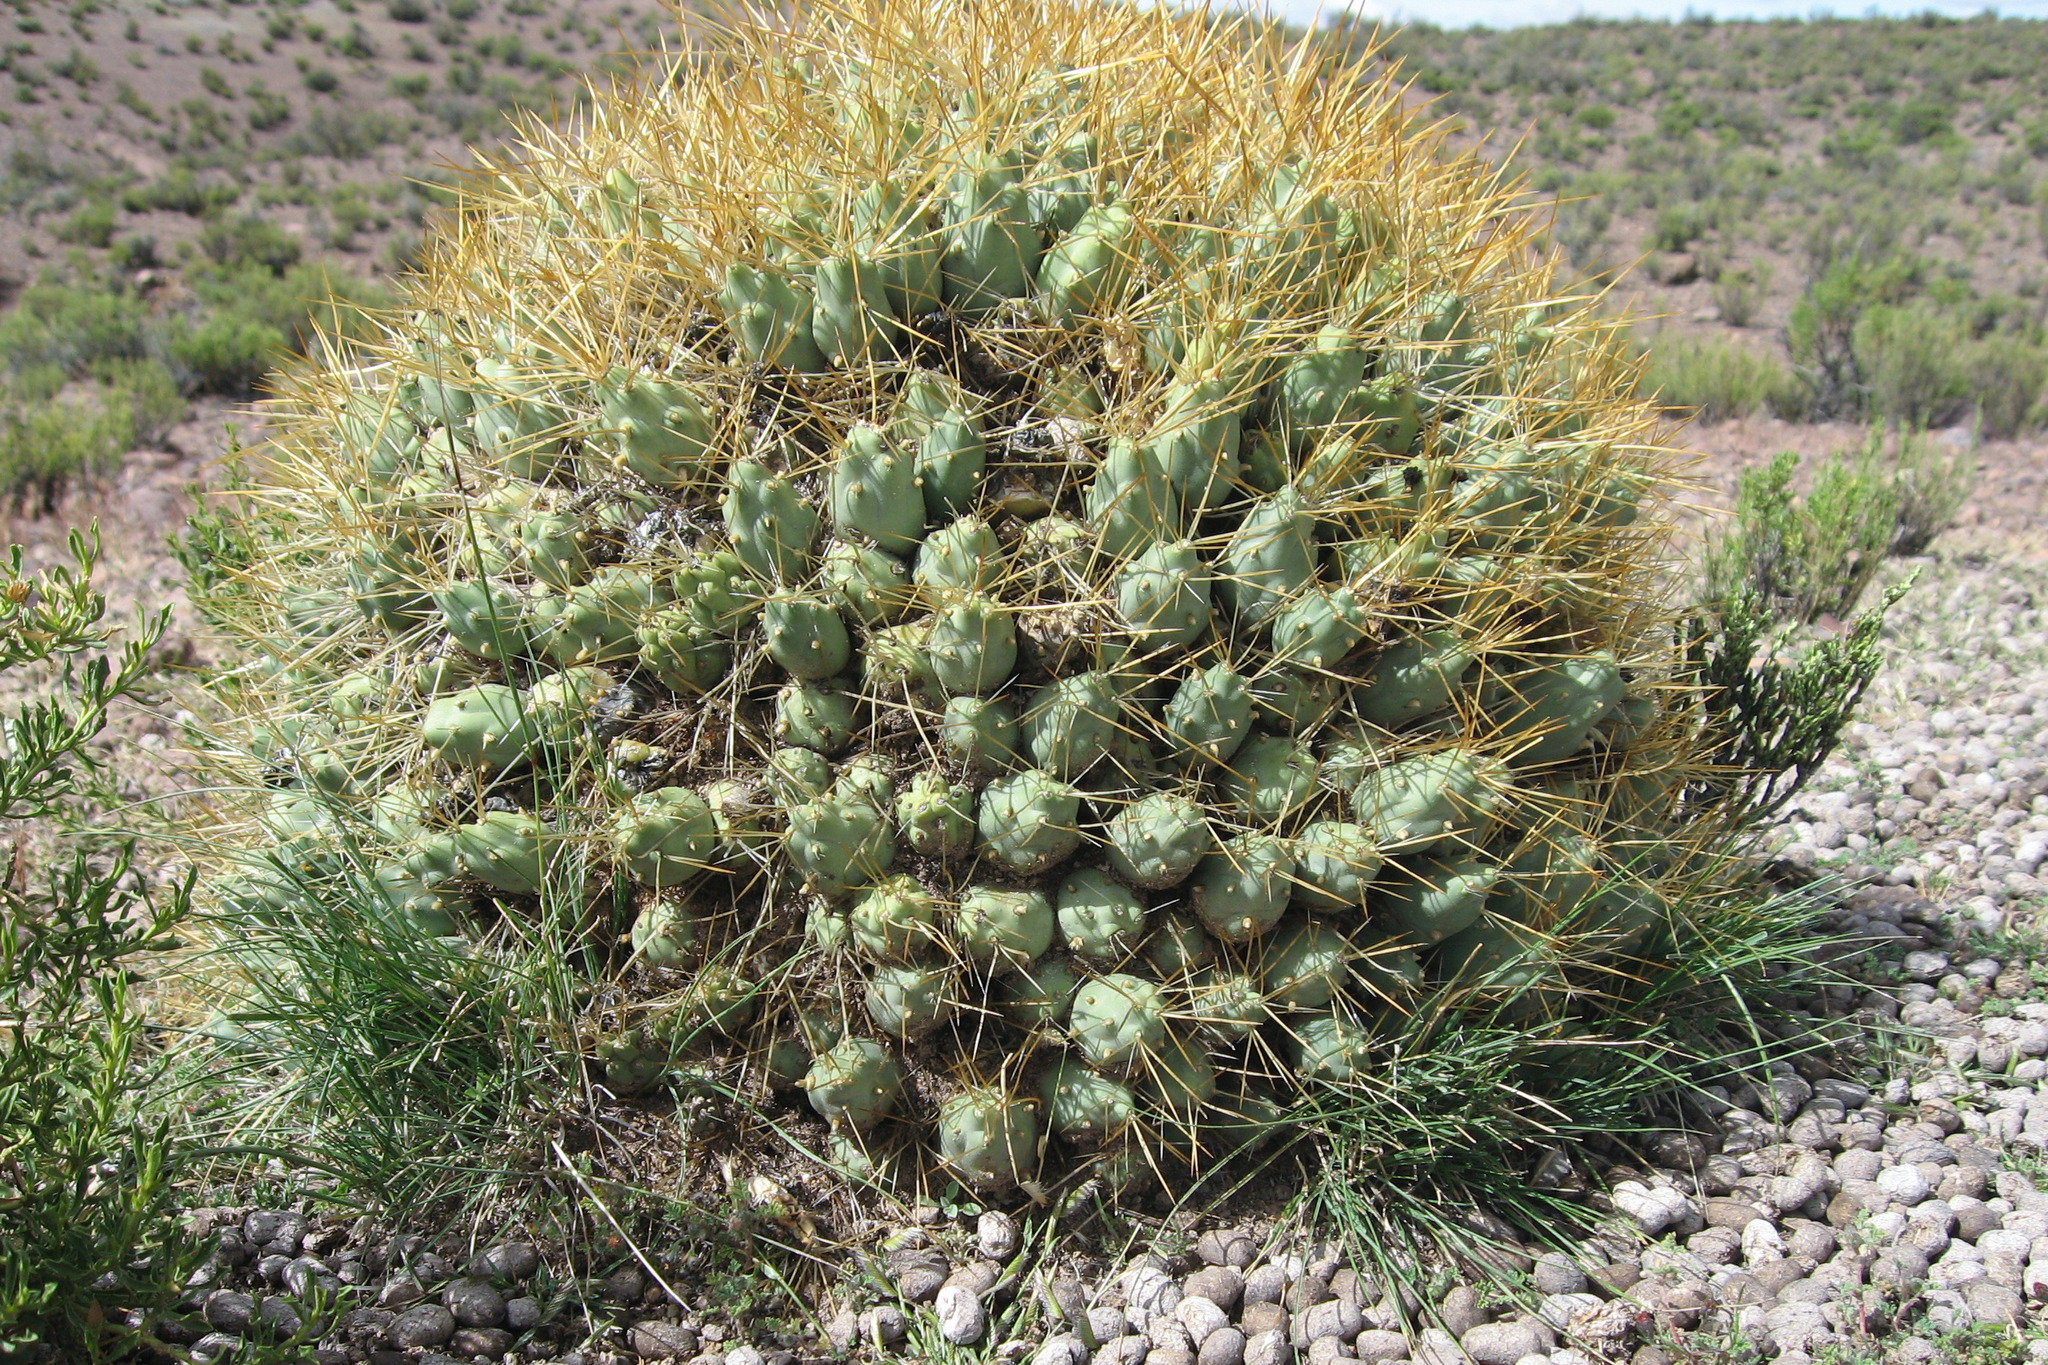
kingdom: Plantae
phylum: Tracheophyta
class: Magnoliopsida
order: Caryophyllales
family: Cactaceae
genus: Cumulopuntia
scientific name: Cumulopuntia boliviana
